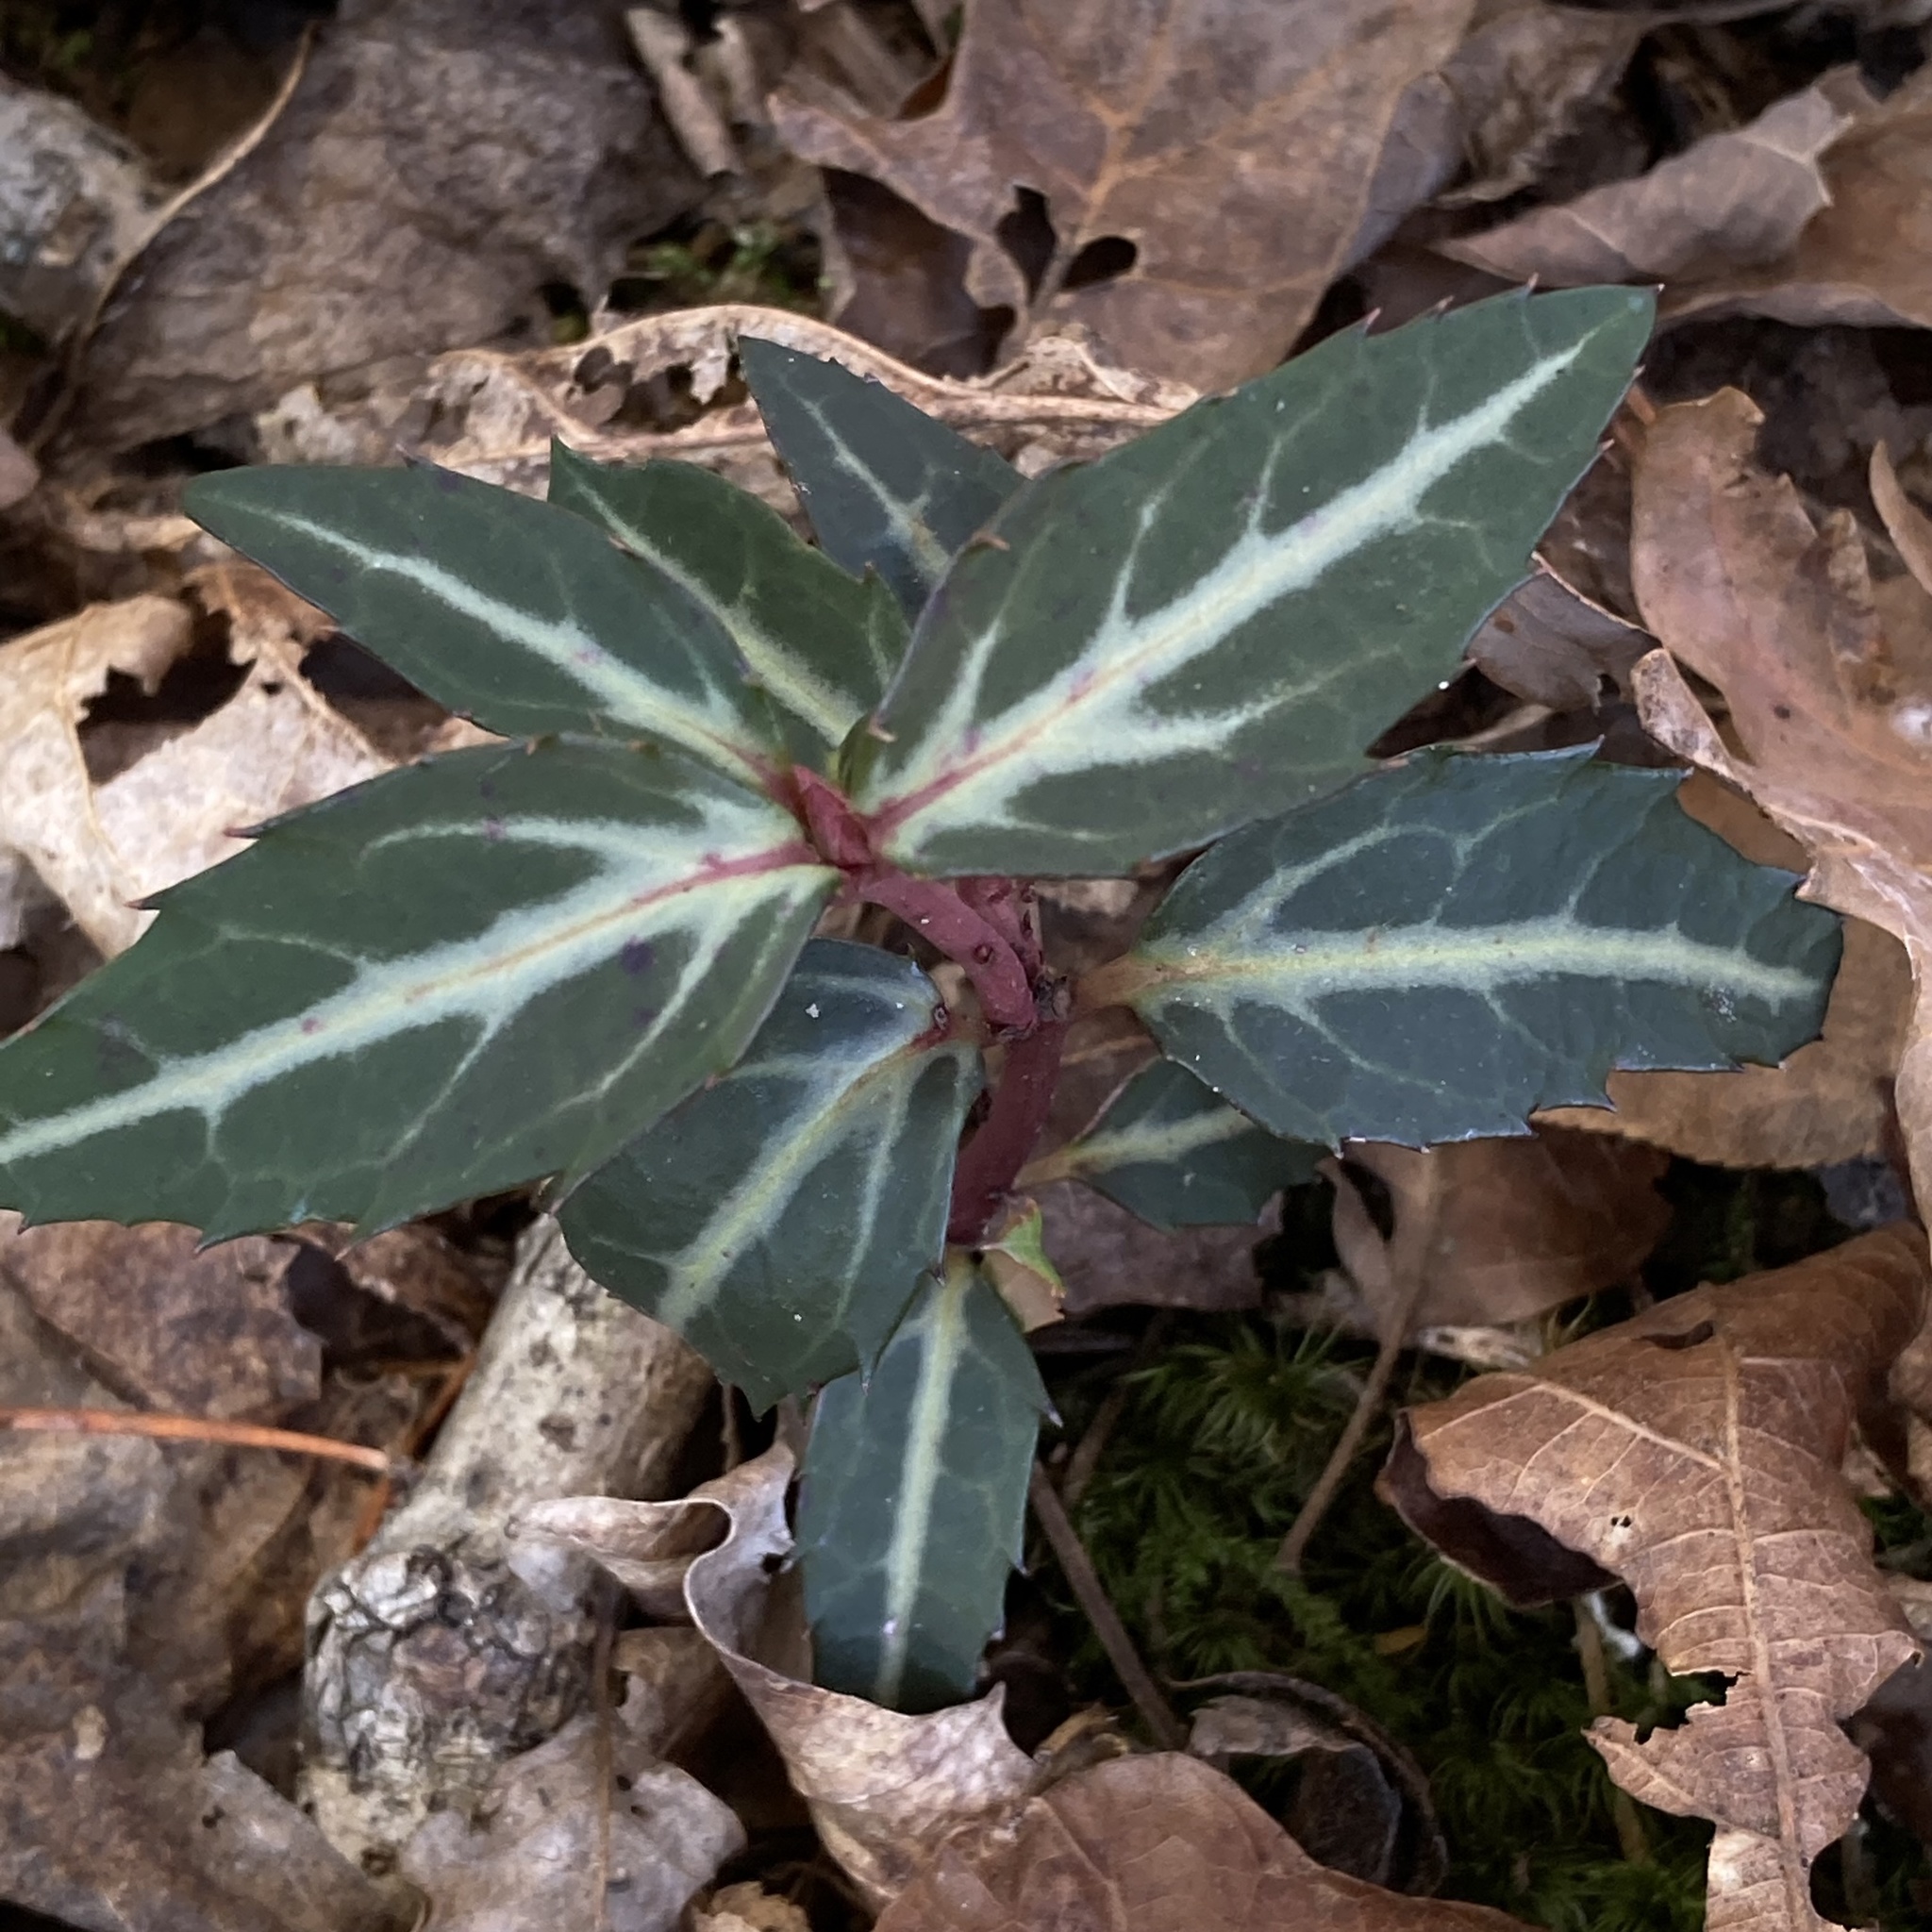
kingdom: Plantae
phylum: Tracheophyta
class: Magnoliopsida
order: Ericales
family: Ericaceae
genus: Chimaphila
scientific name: Chimaphila maculata
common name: Spotted pipsissewa
